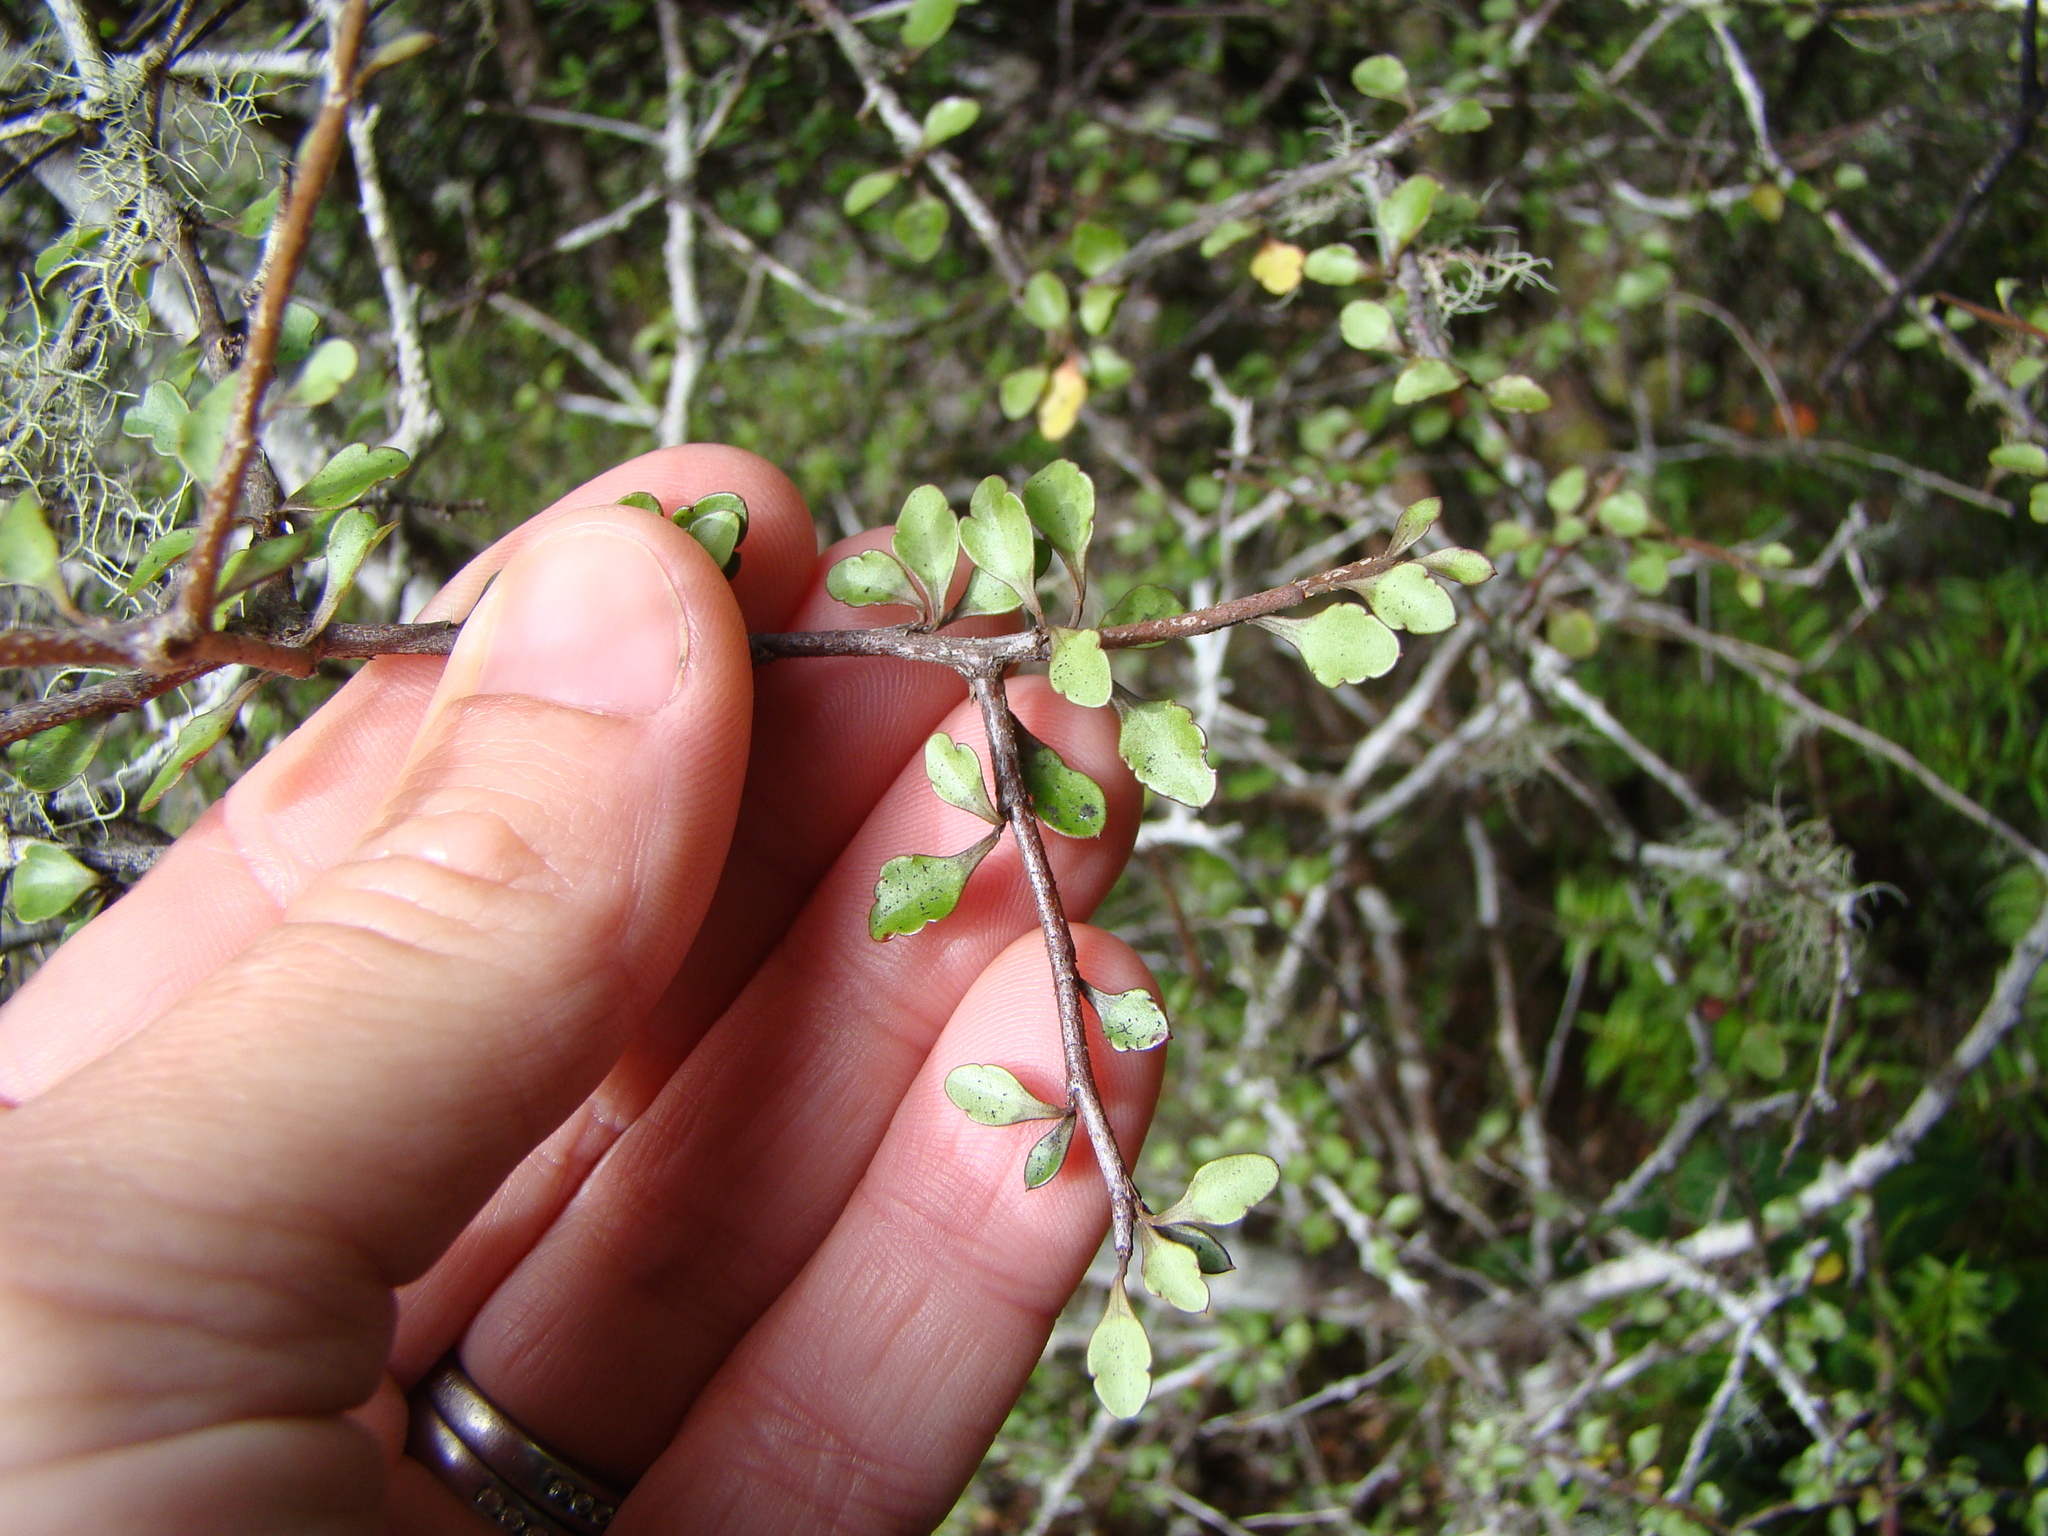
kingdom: Plantae
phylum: Tracheophyta
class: Magnoliopsida
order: Apiales
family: Araliaceae
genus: Raukaua
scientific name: Raukaua anomalus
